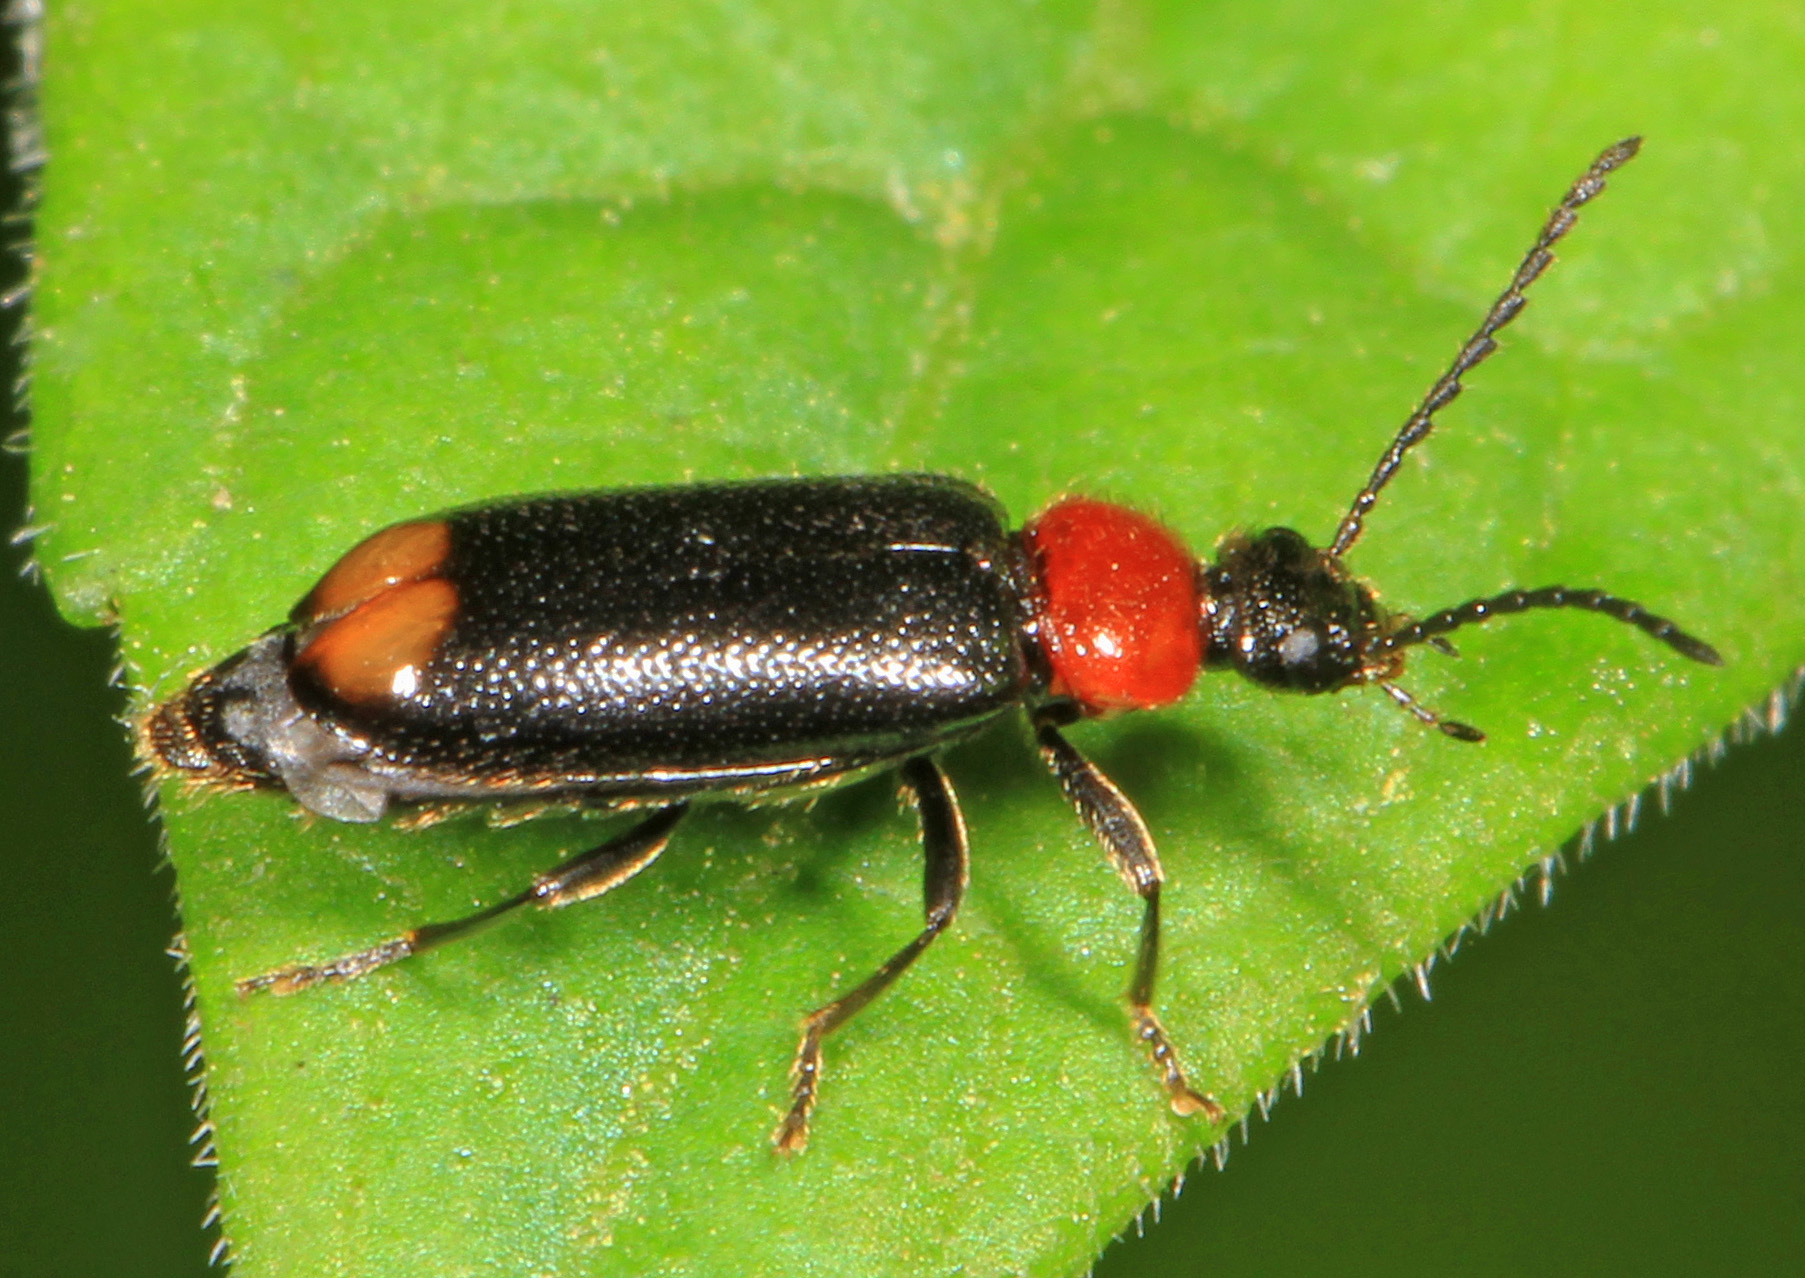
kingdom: Animalia
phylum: Arthropoda
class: Insecta
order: Coleoptera
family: Pyrochroidae
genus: Pedilus
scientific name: Pedilus terminalis
